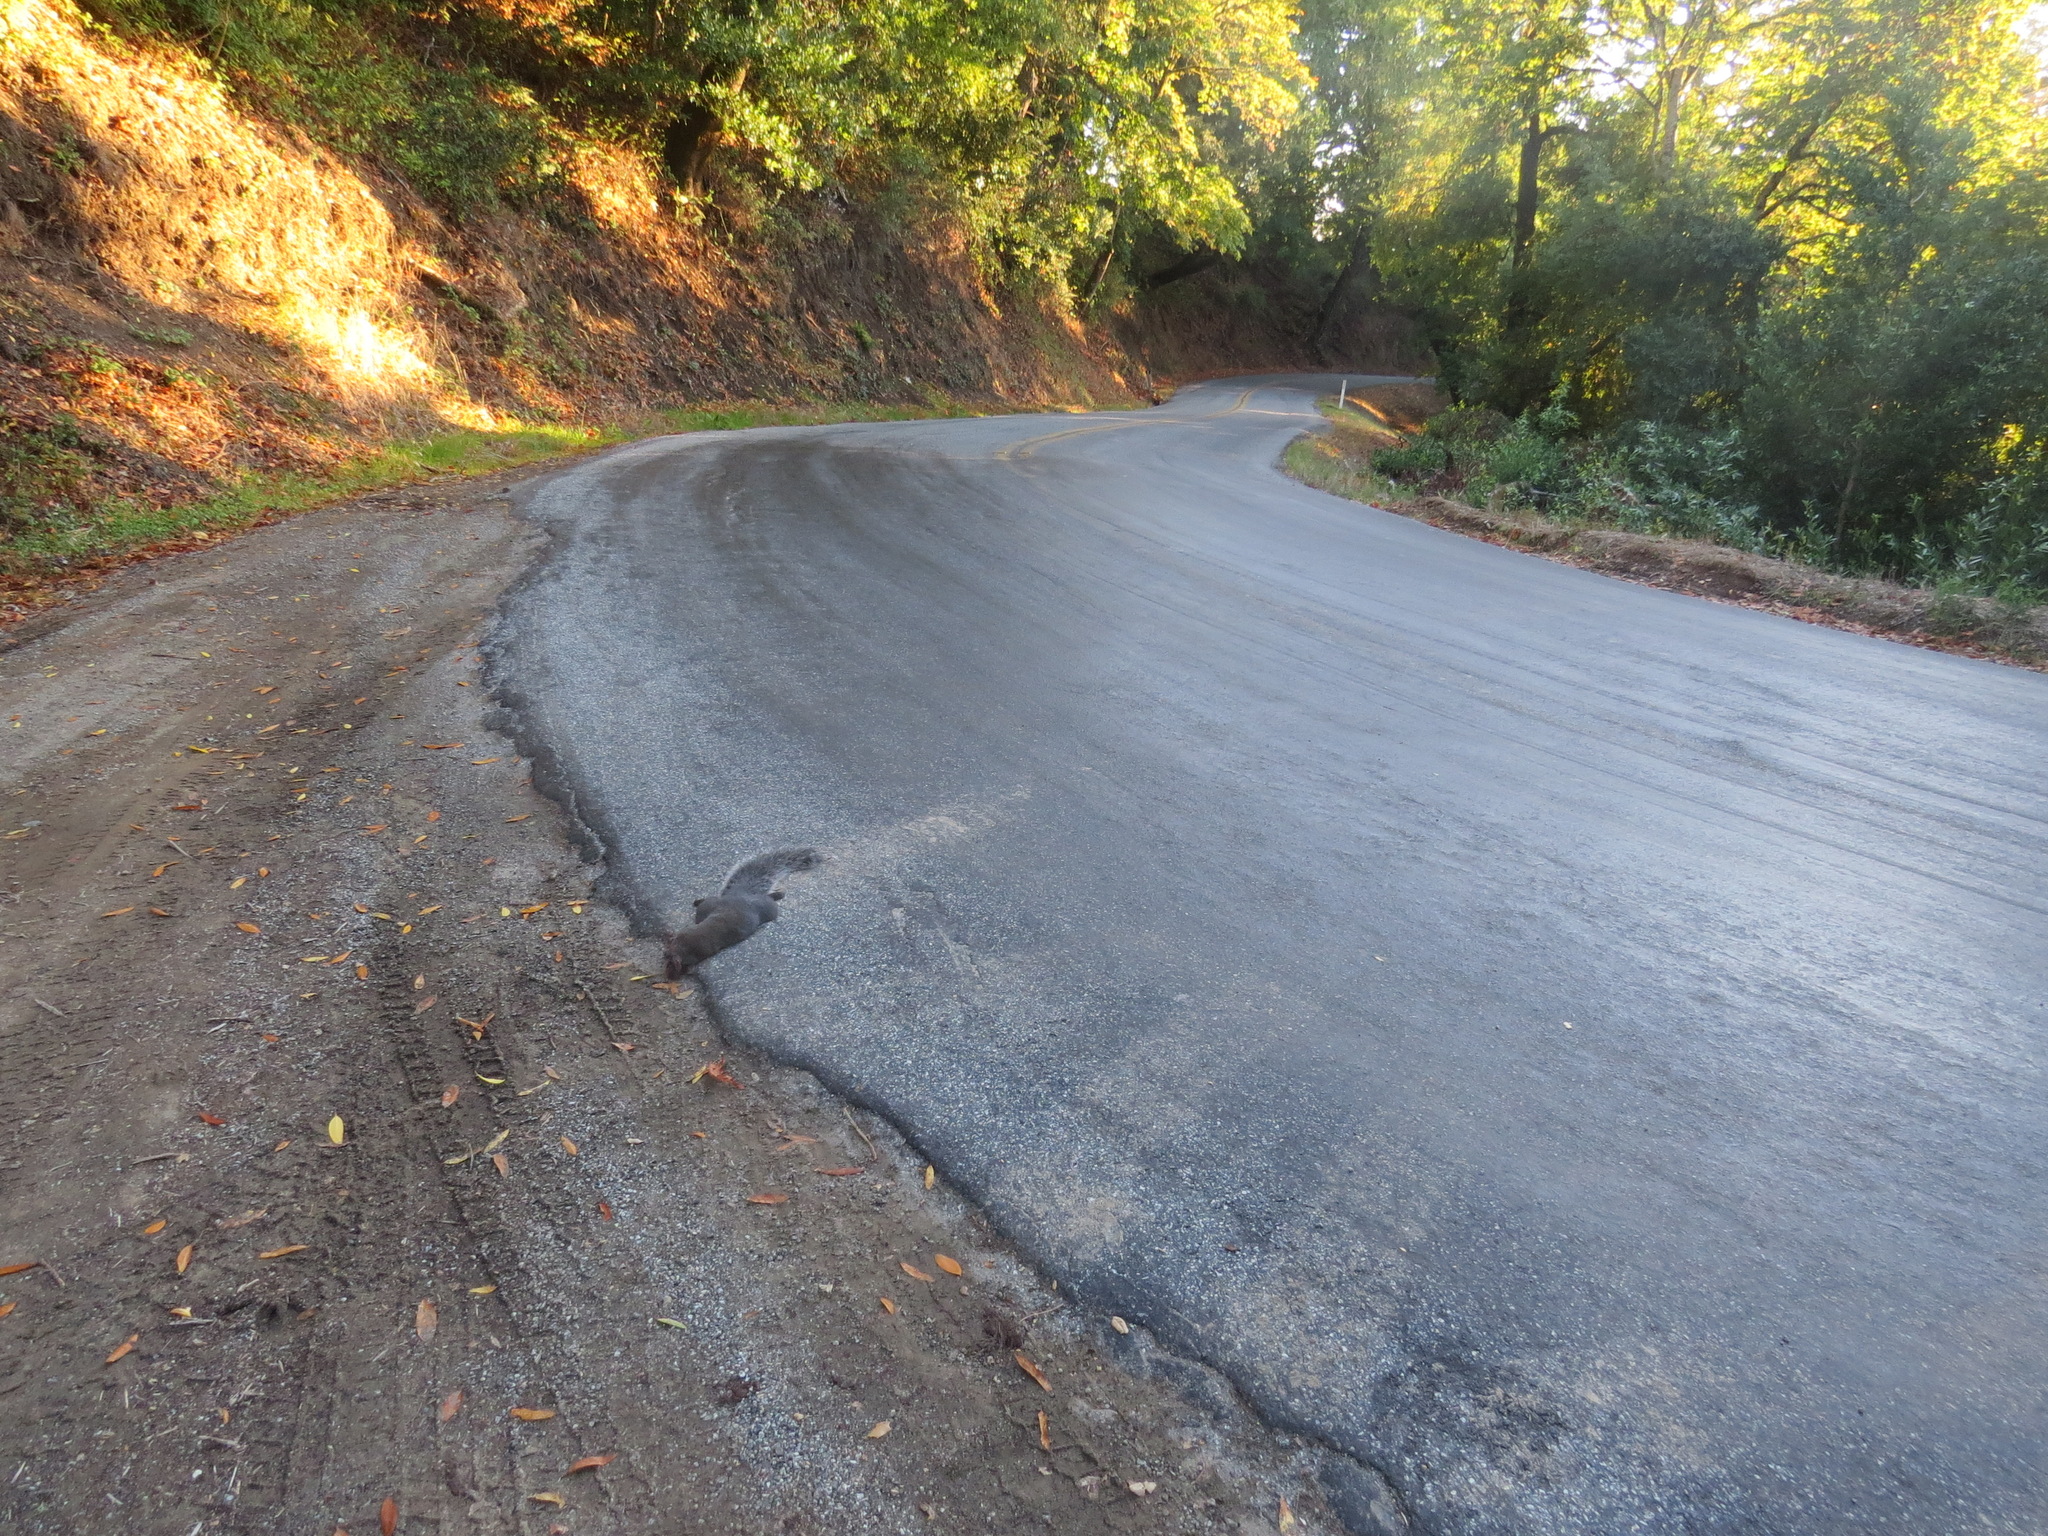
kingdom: Animalia
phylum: Chordata
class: Mammalia
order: Rodentia
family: Sciuridae
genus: Sciurus
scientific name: Sciurus griseus
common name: Western gray squirrel
